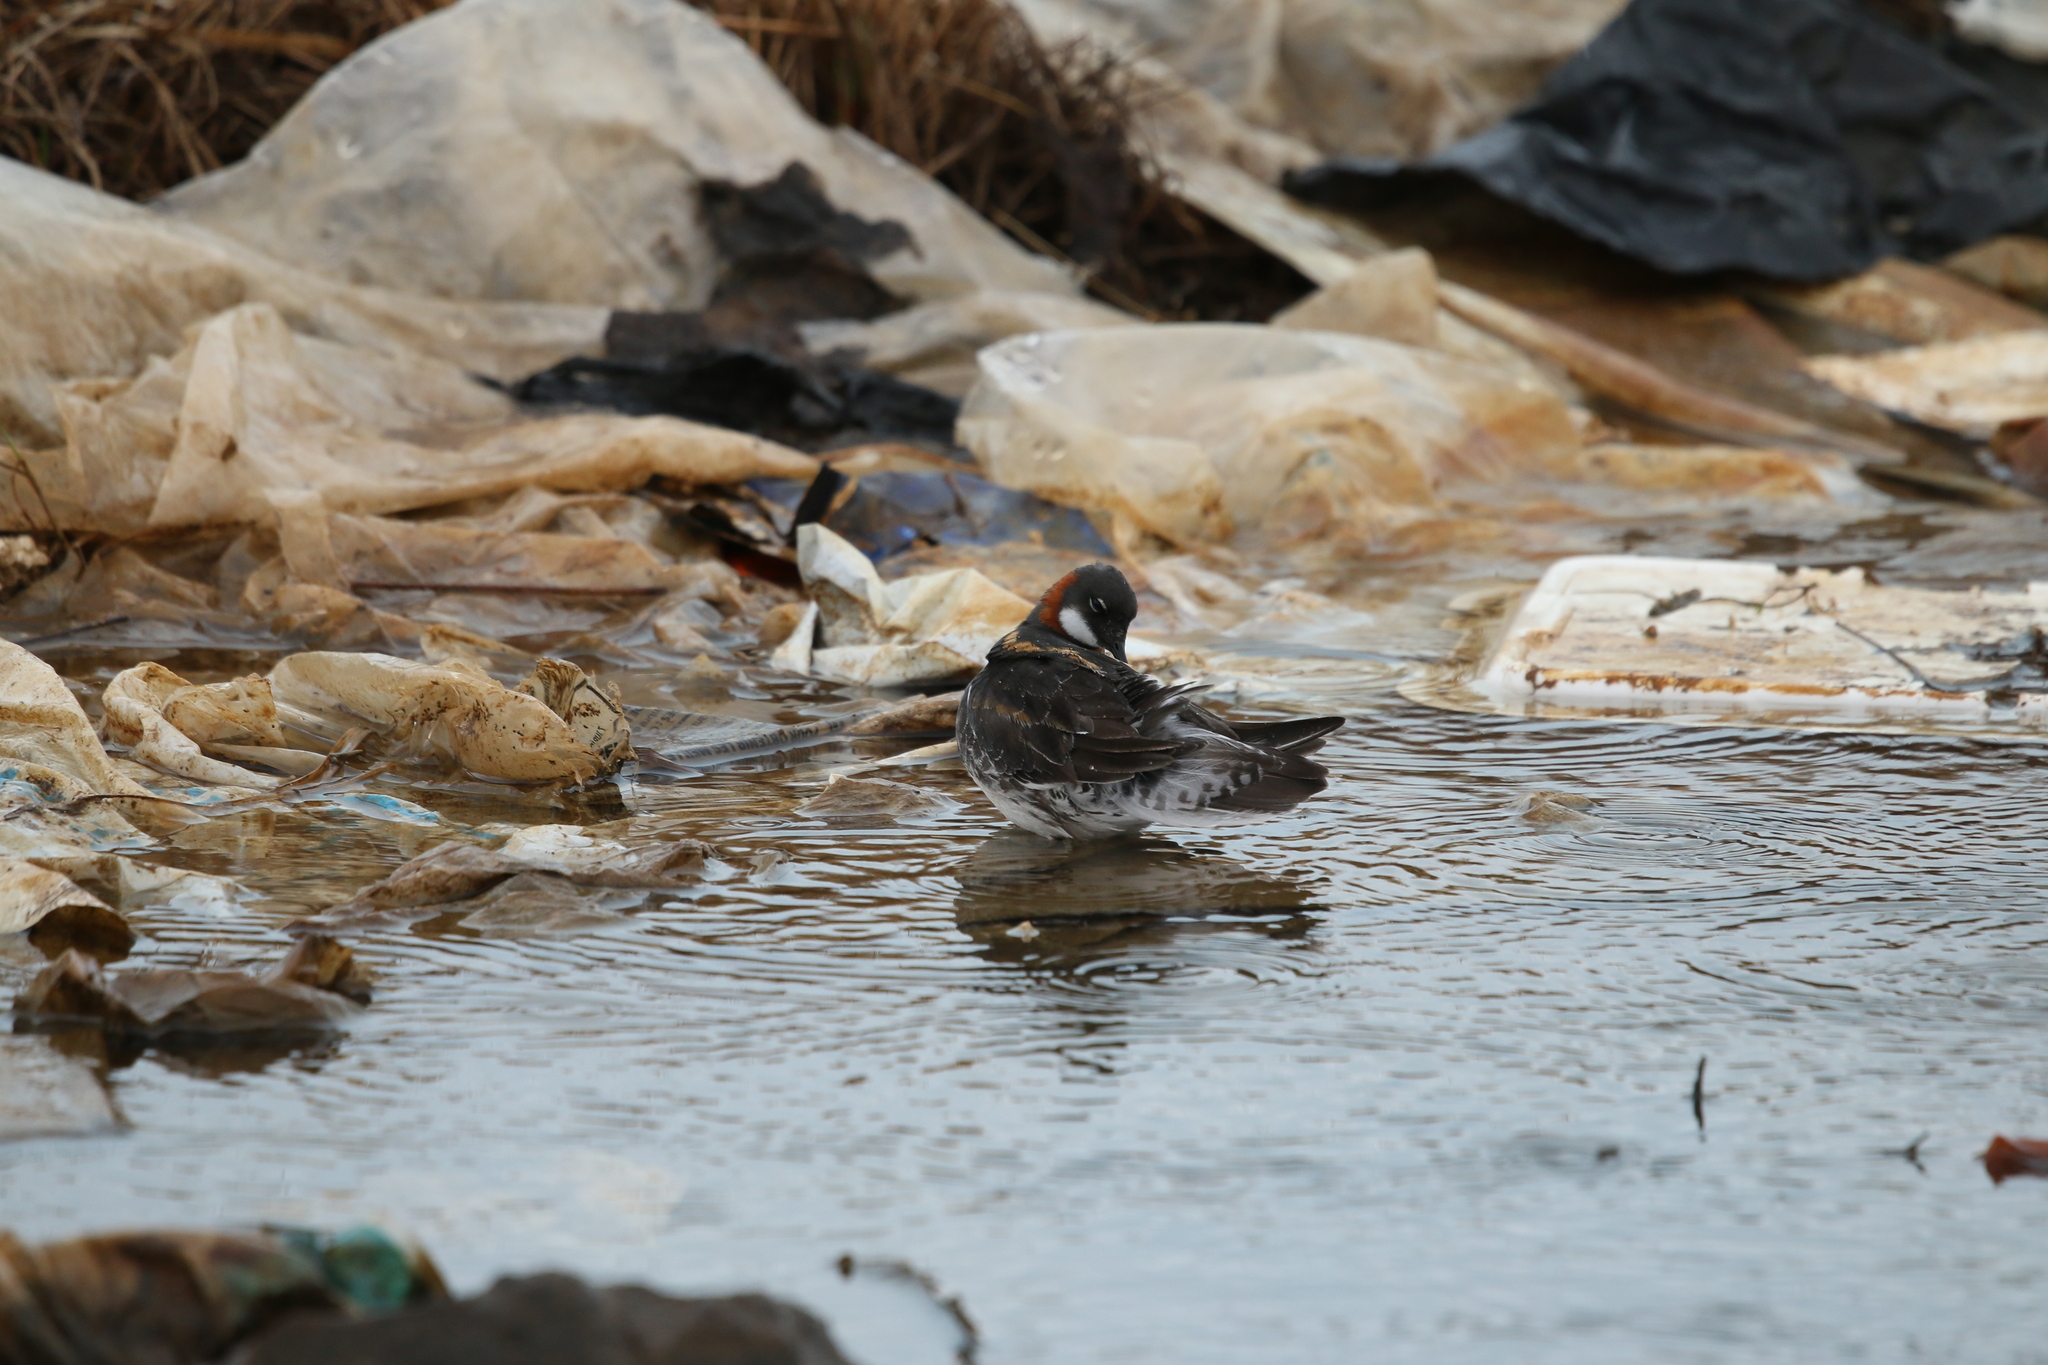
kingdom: Animalia
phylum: Chordata
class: Aves
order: Charadriiformes
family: Scolopacidae
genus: Phalaropus
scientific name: Phalaropus lobatus
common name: Red-necked phalarope
